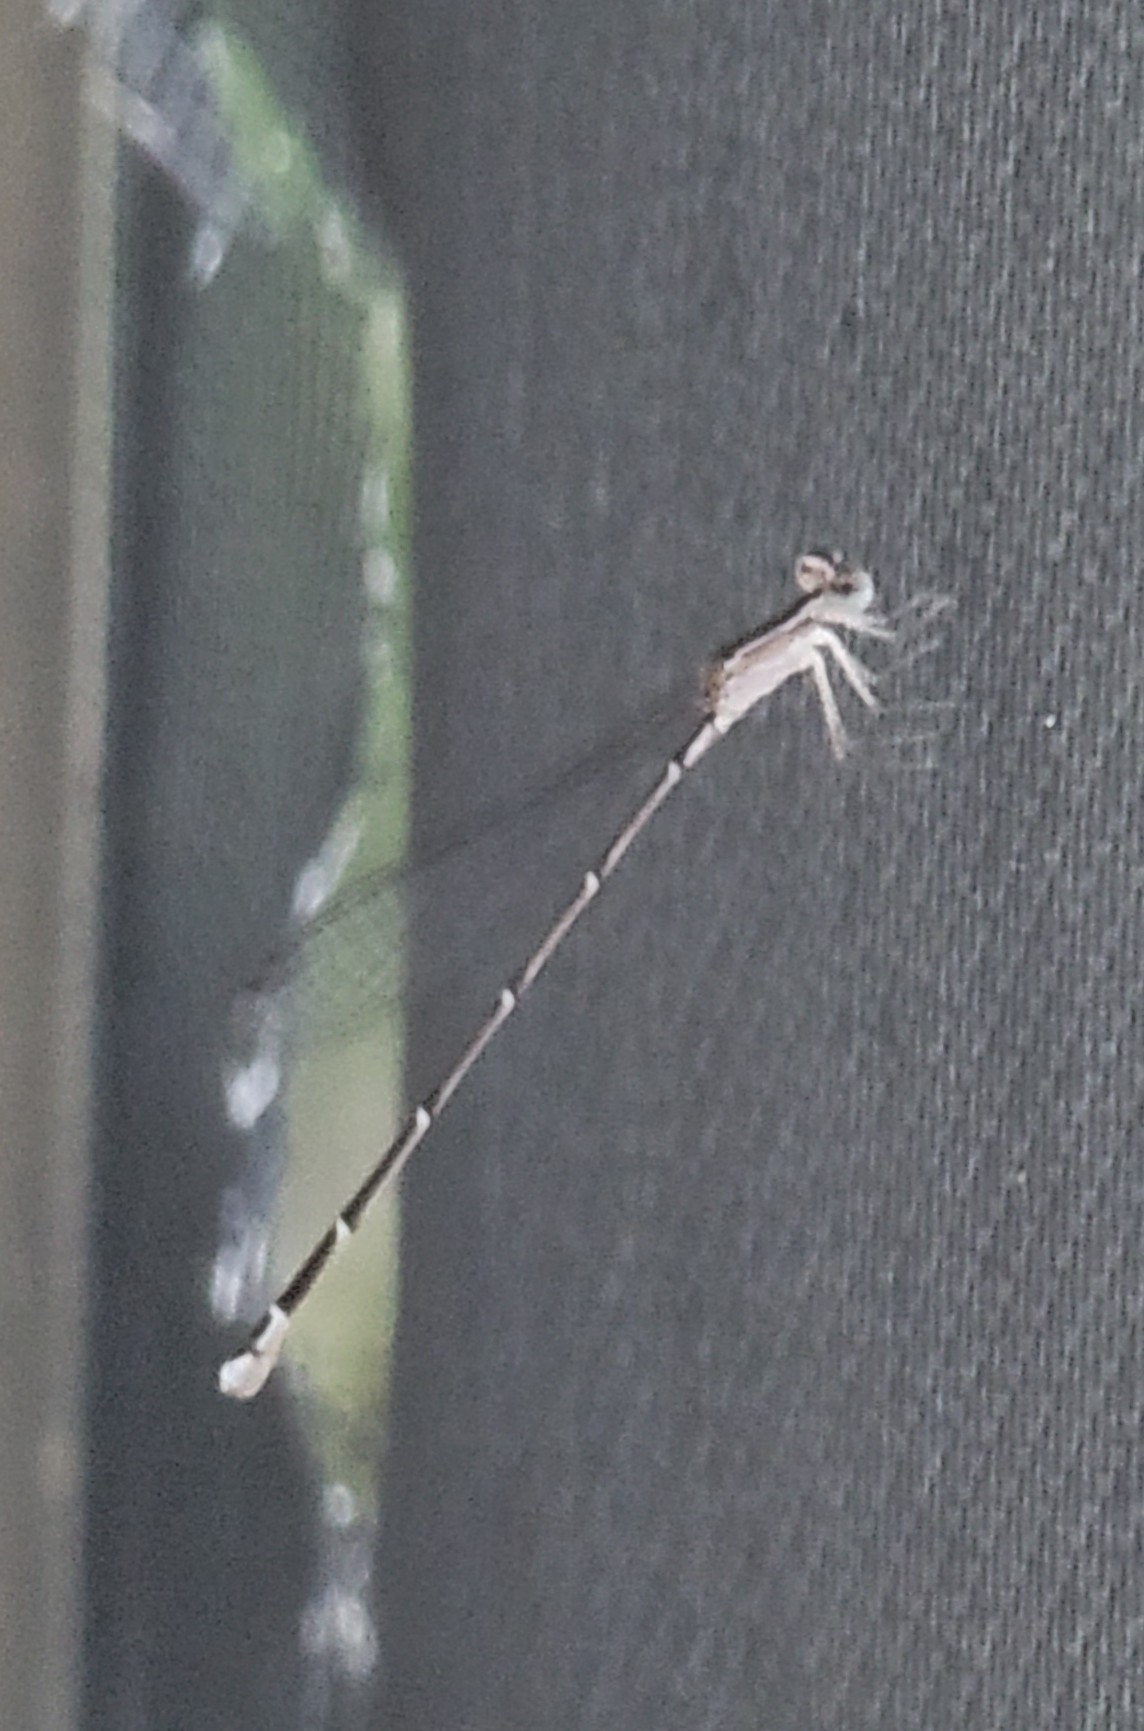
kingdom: Animalia
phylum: Arthropoda
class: Insecta
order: Odonata
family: Coenagrionidae
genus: Nehalennia
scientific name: Nehalennia pallidula
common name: Everglades sprite
